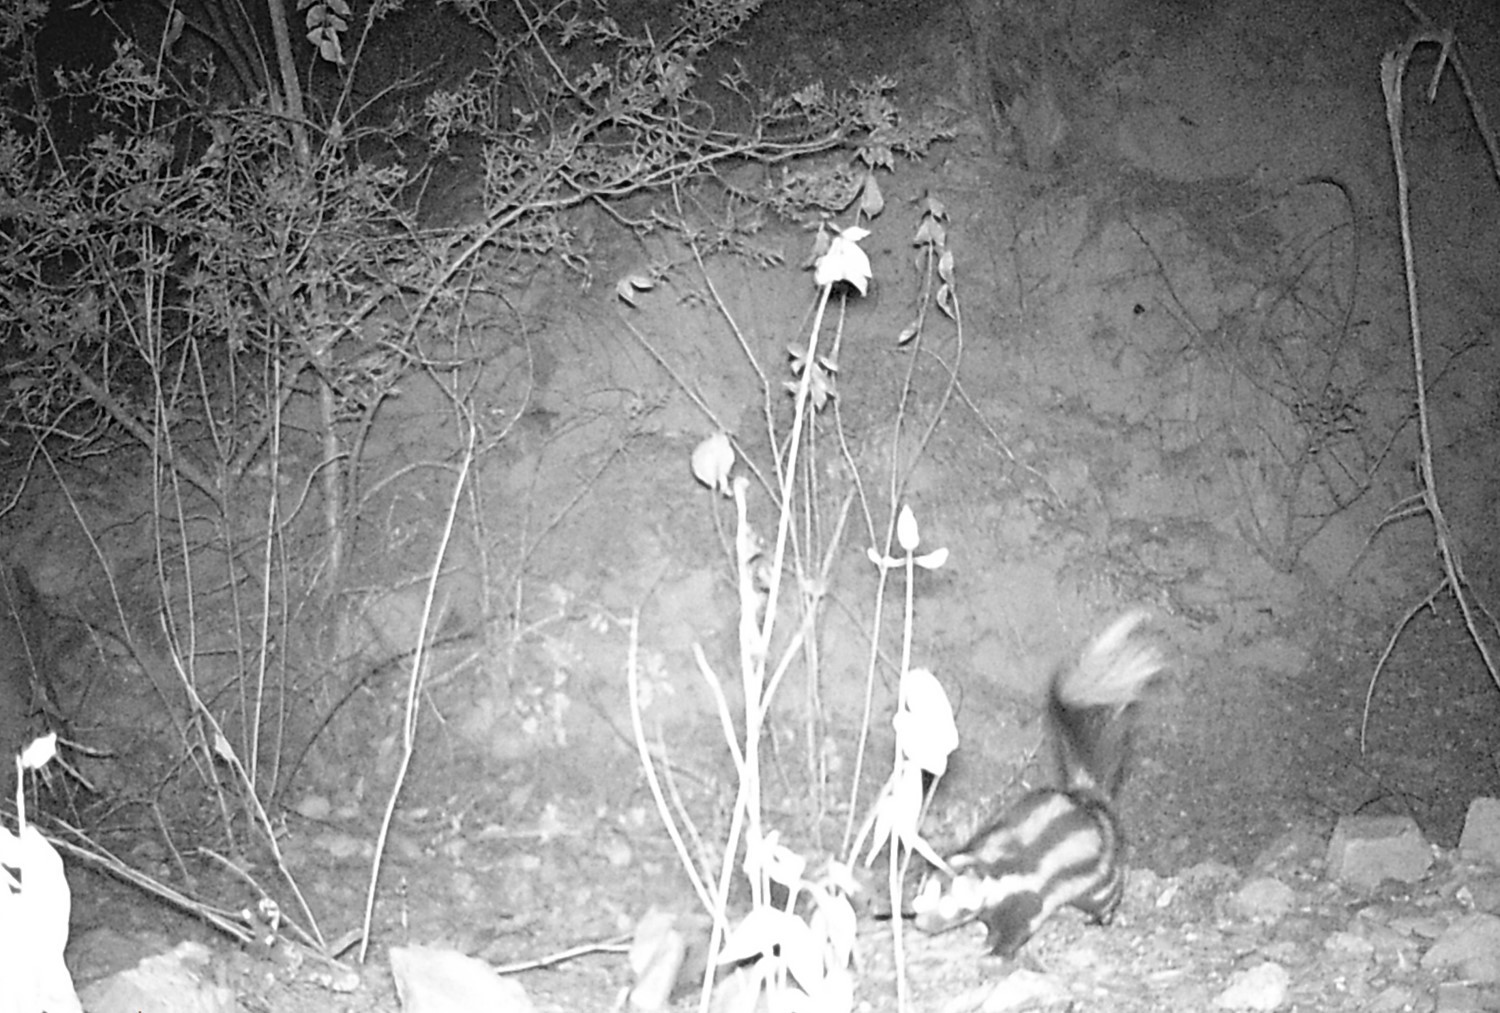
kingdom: Animalia
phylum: Chordata
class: Mammalia
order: Carnivora
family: Mephitidae
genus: Spilogale
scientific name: Spilogale gracilis
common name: Western spotted skunk
